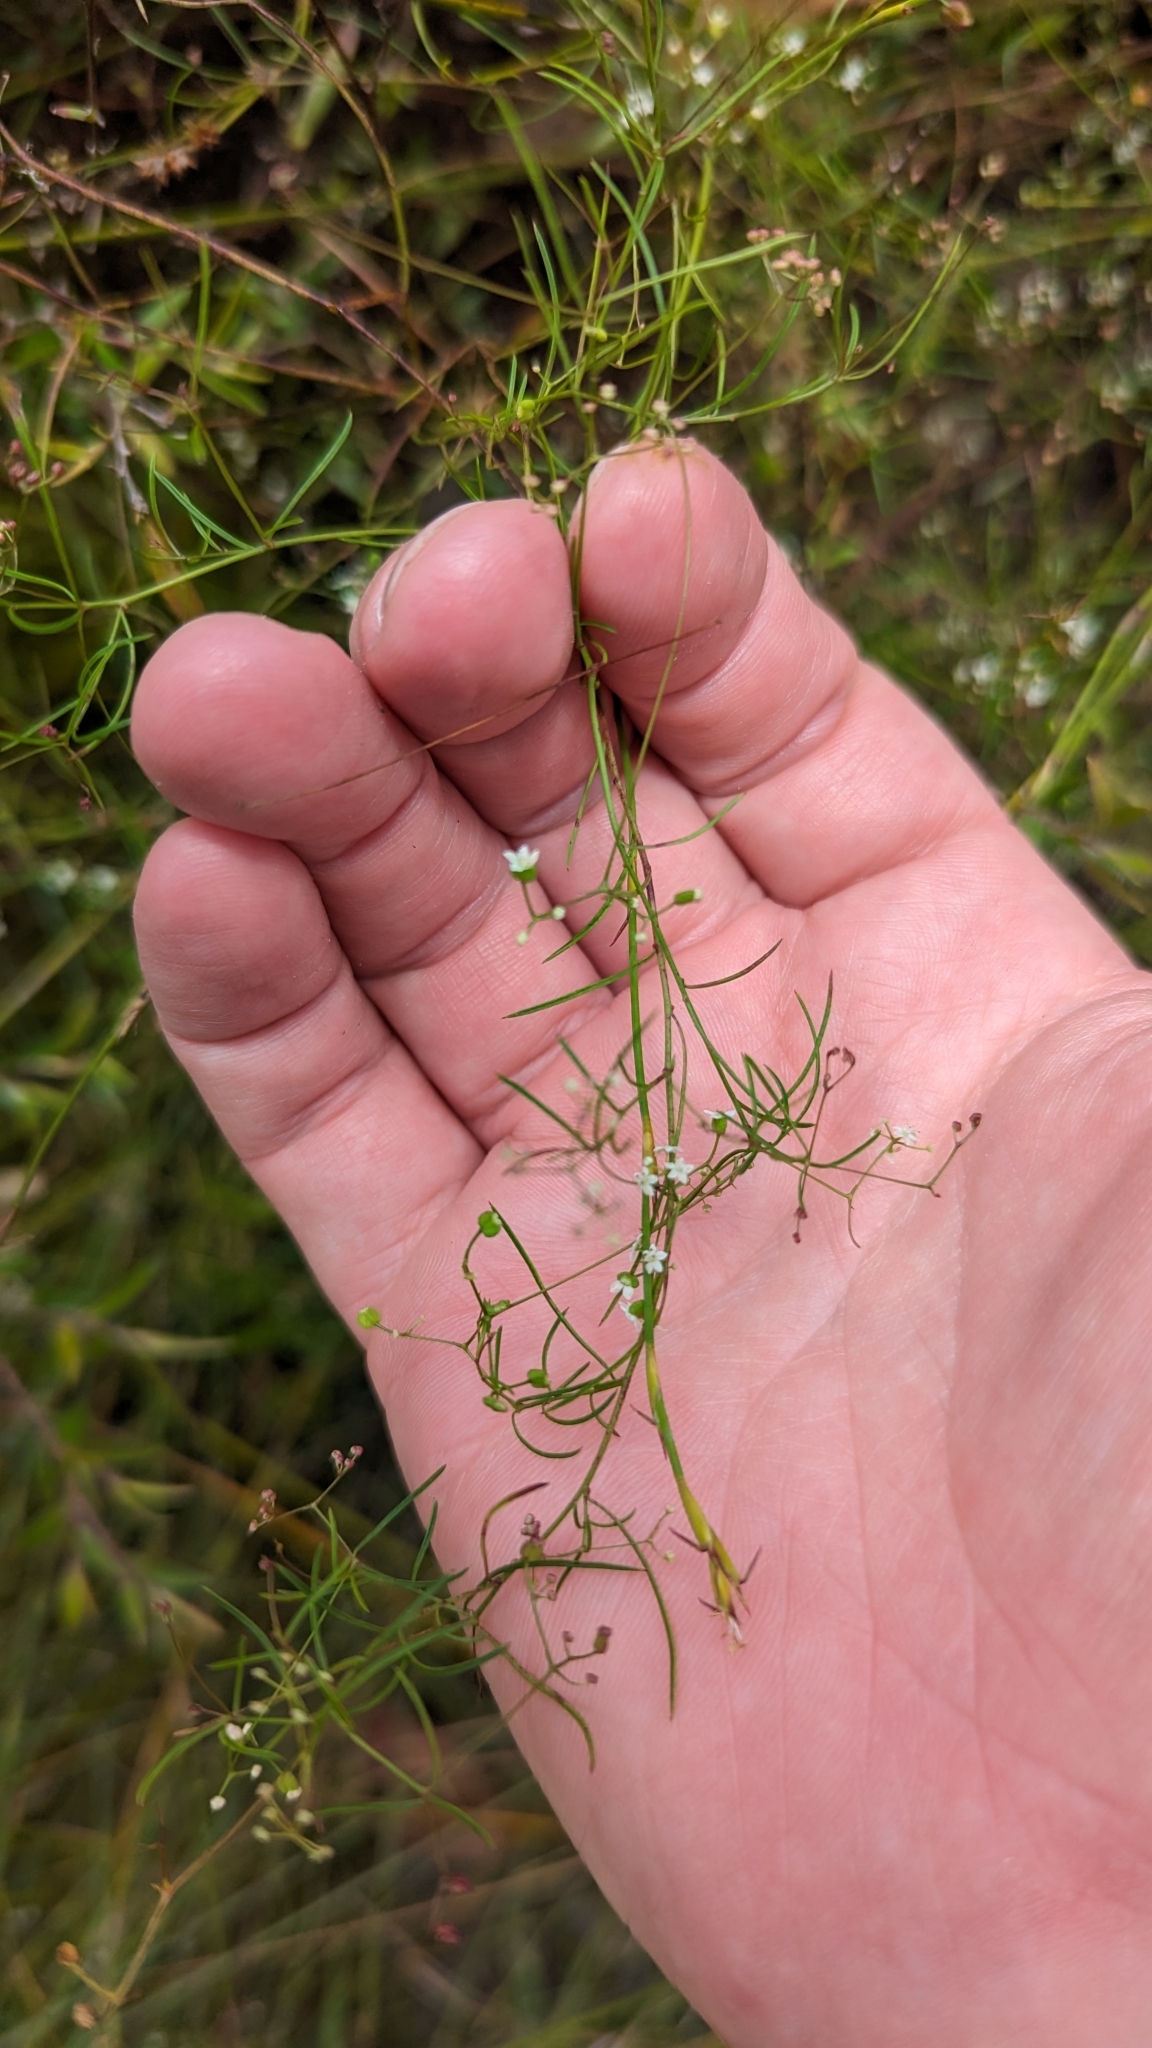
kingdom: Plantae
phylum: Tracheophyta
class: Magnoliopsida
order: Apiales
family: Apiaceae
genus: Platysace
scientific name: Platysace linearifolia
